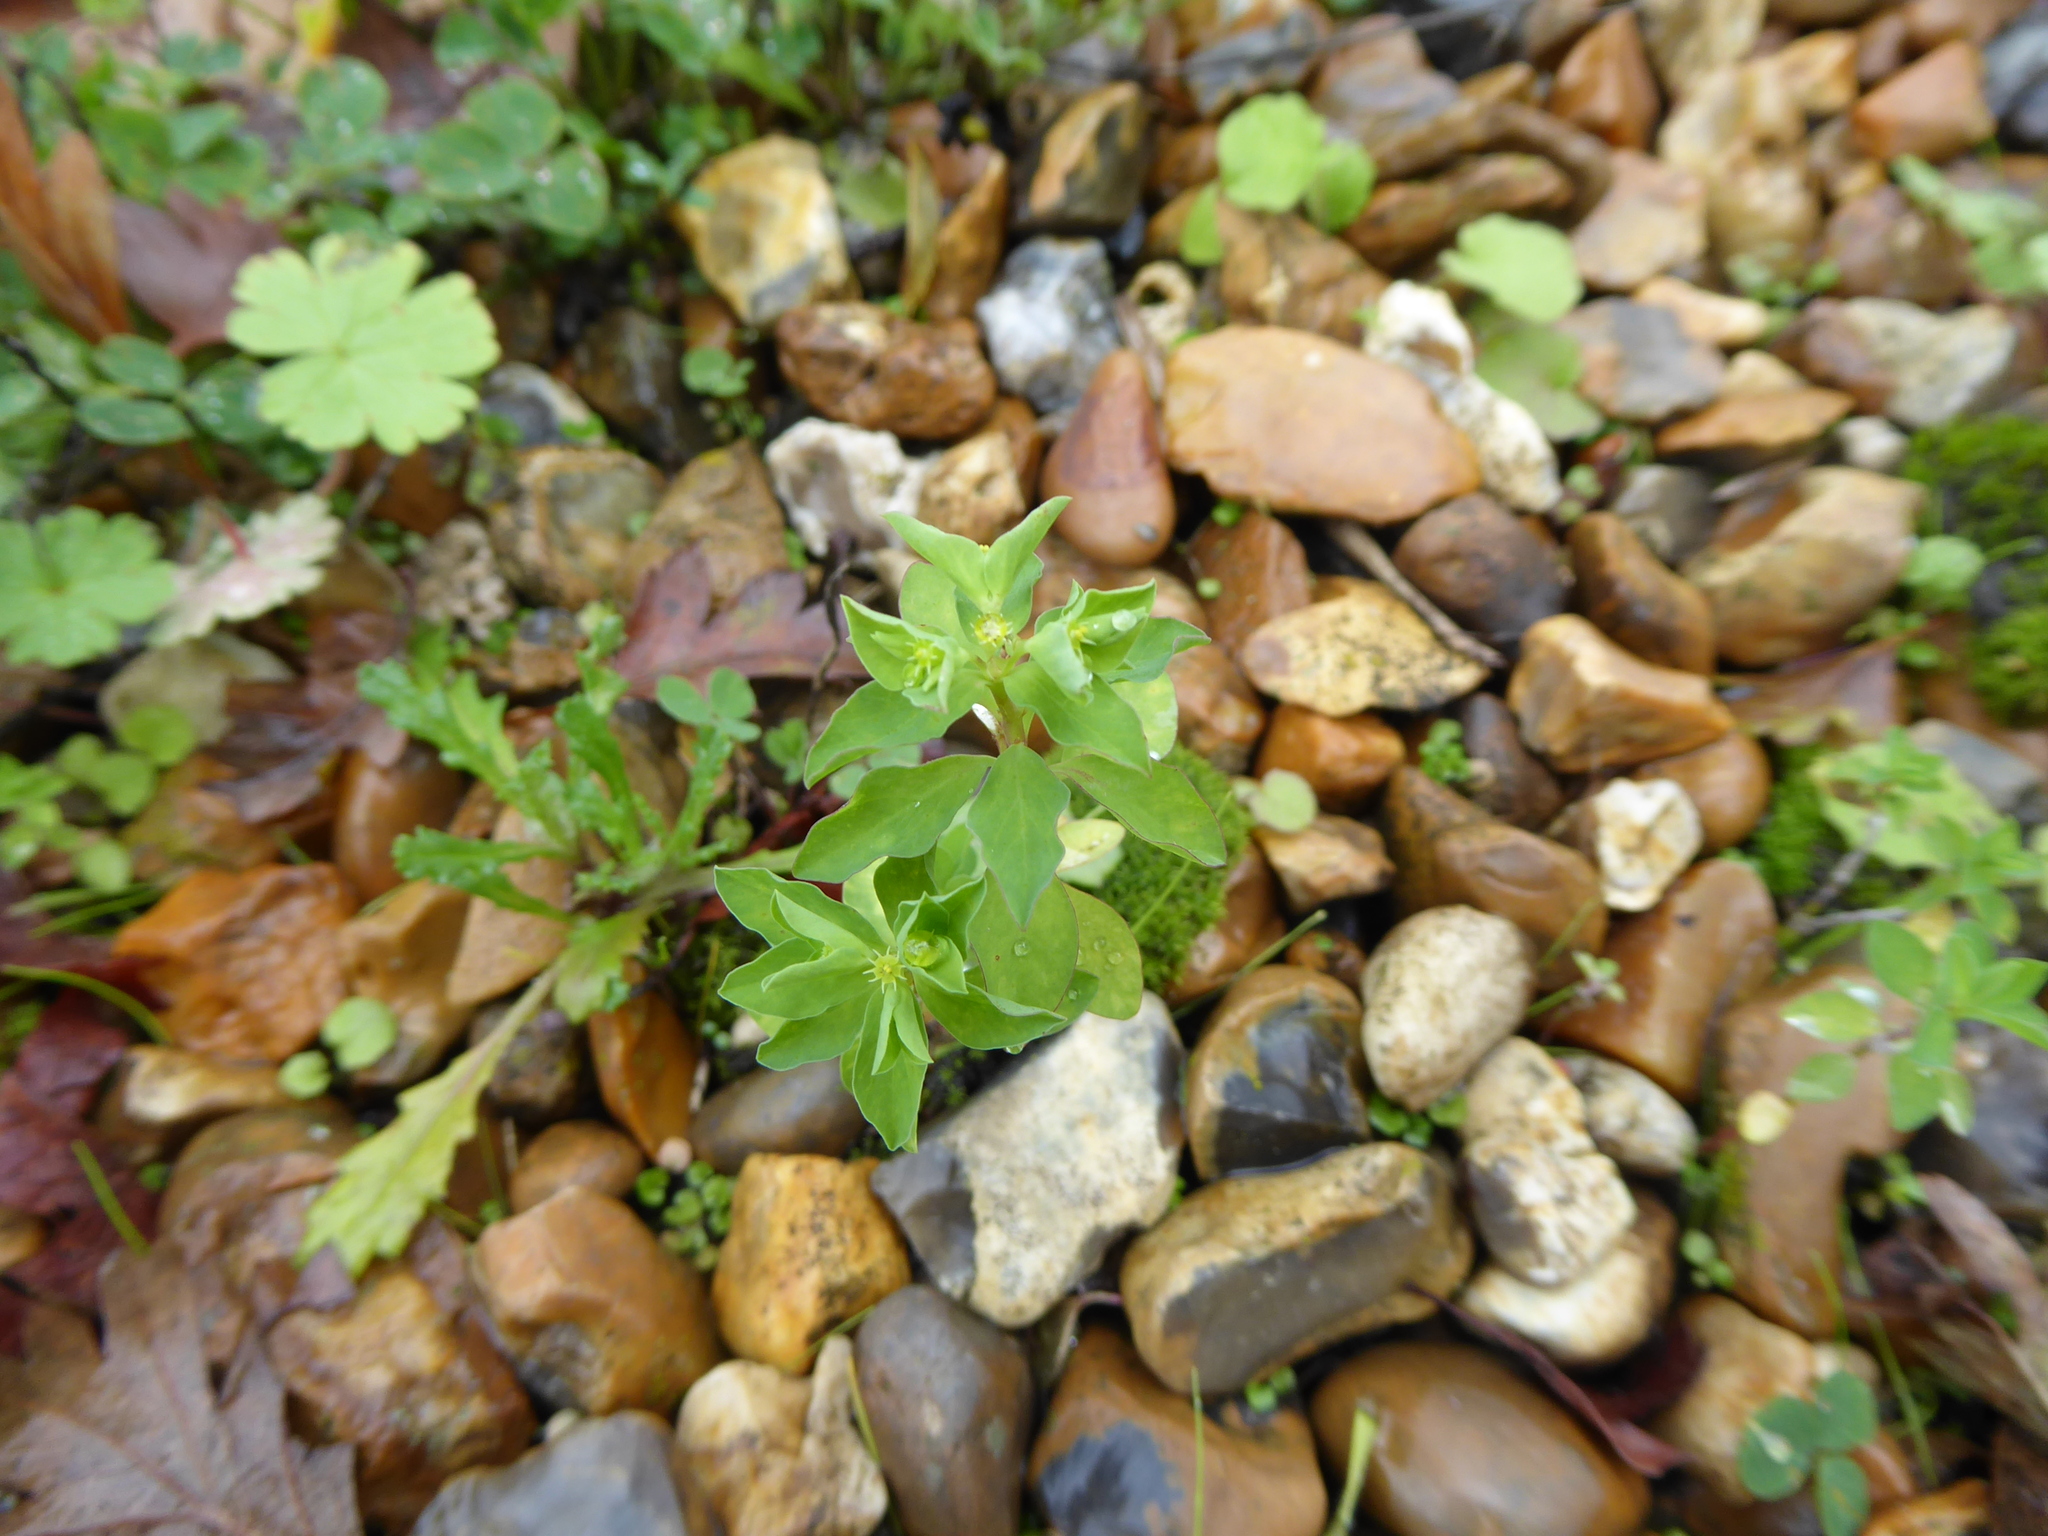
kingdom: Plantae
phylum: Tracheophyta
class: Magnoliopsida
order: Malpighiales
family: Euphorbiaceae
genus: Euphorbia
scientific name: Euphorbia peplus
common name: Petty spurge
